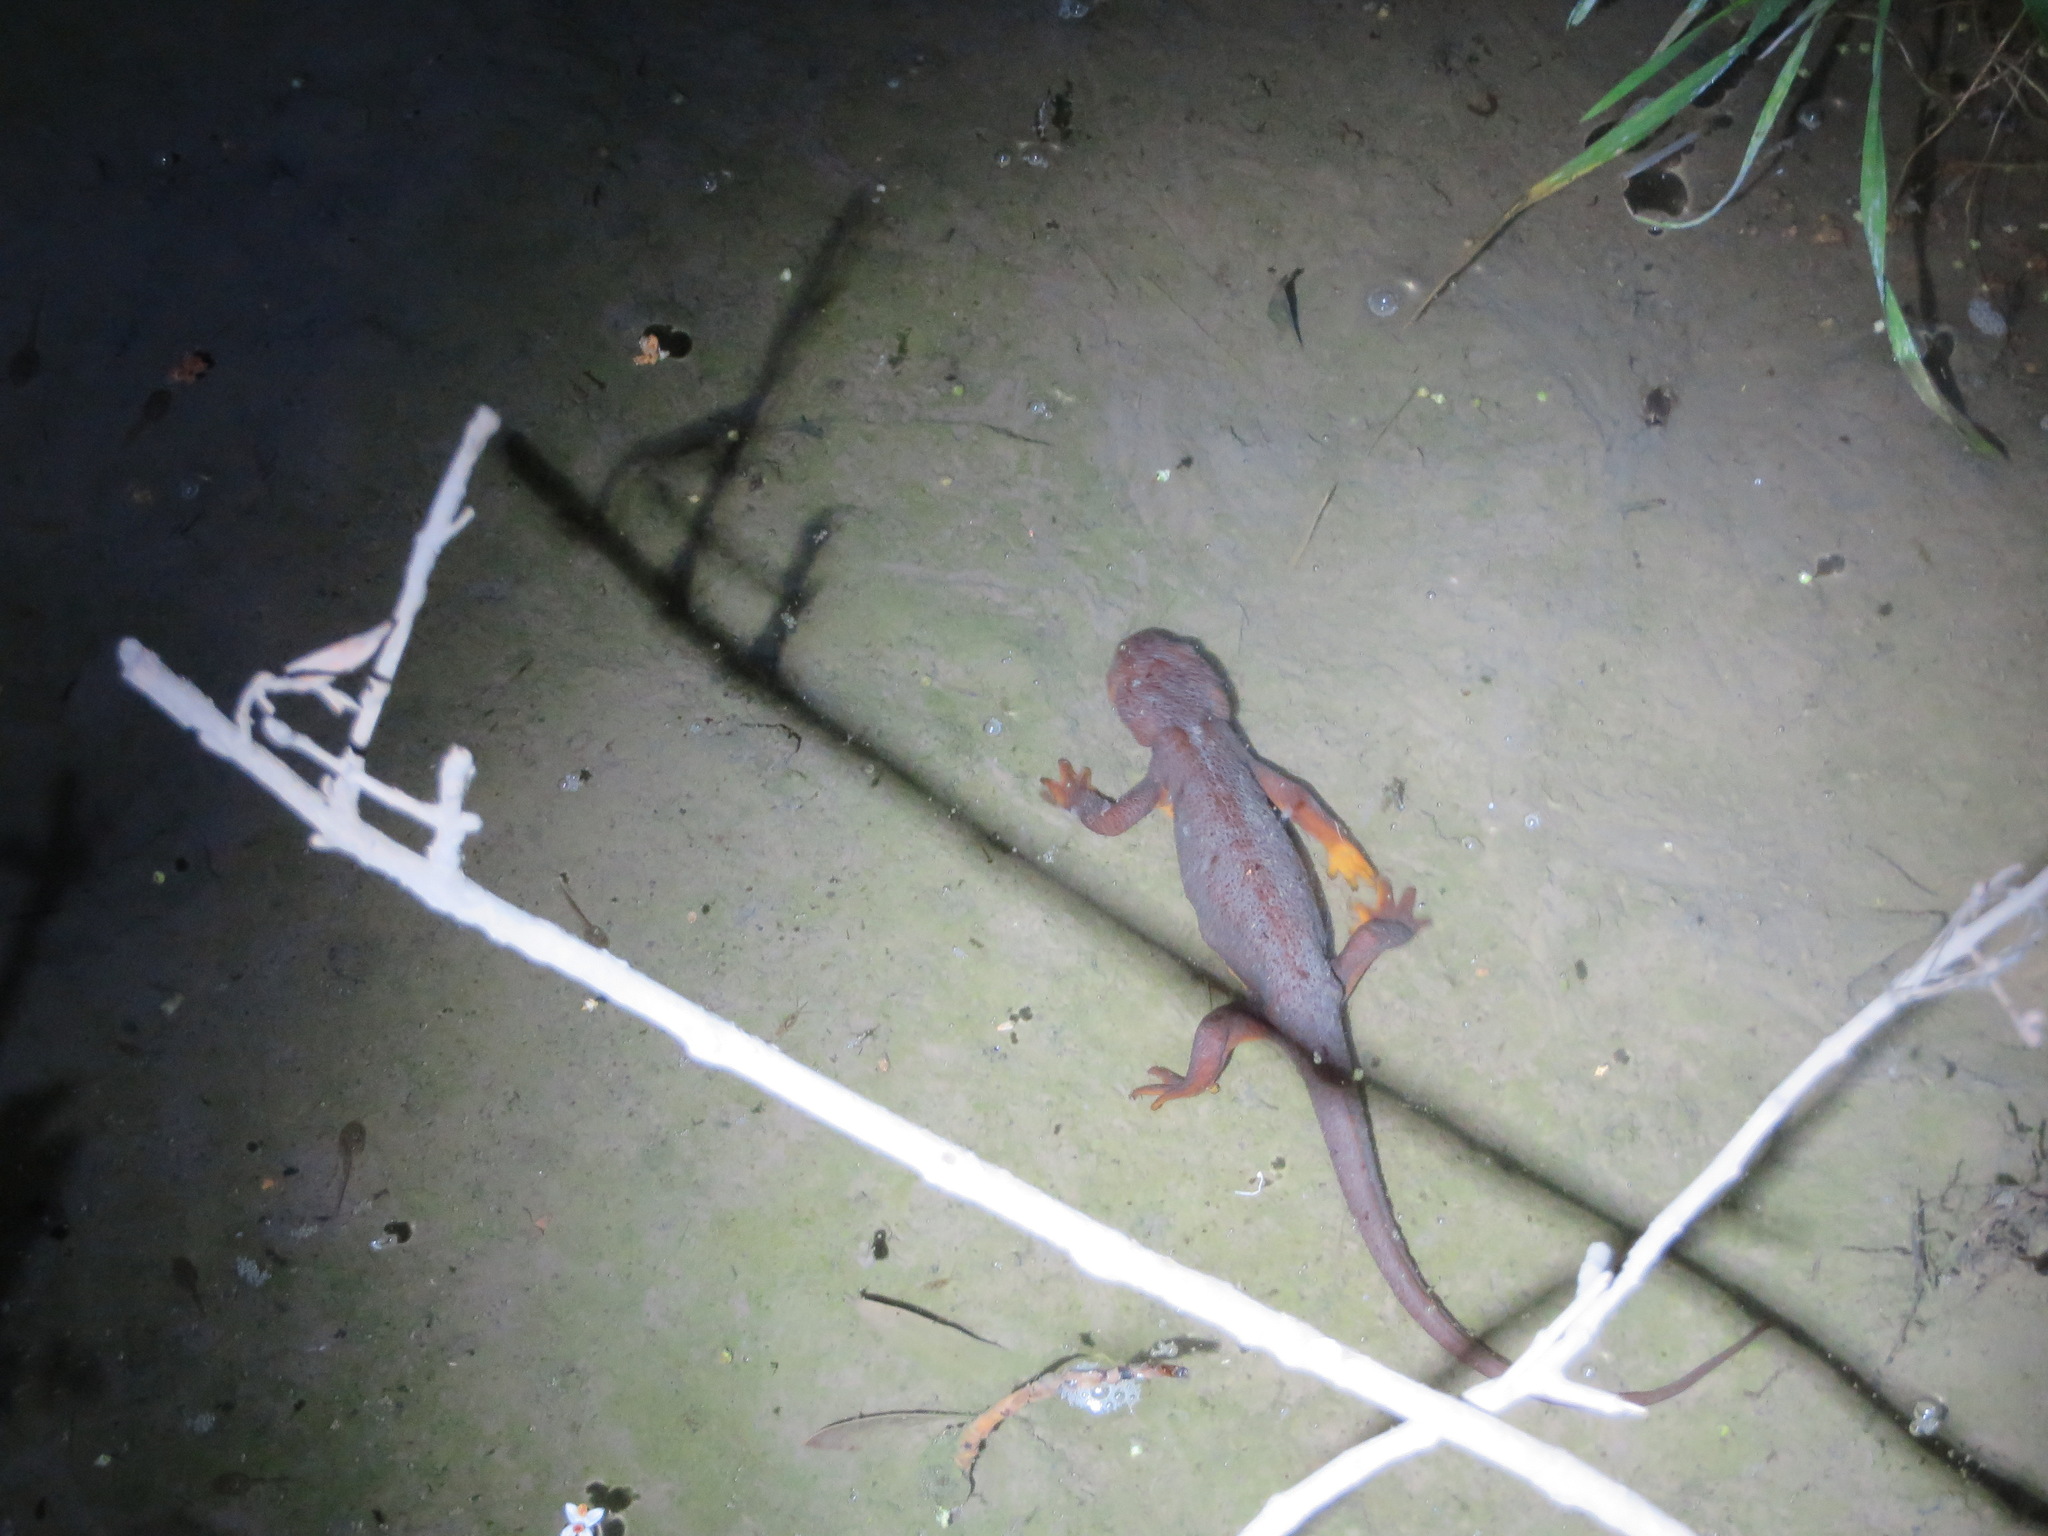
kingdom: Animalia
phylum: Chordata
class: Amphibia
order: Caudata
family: Salamandridae
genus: Taricha
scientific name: Taricha torosa
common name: California newt
